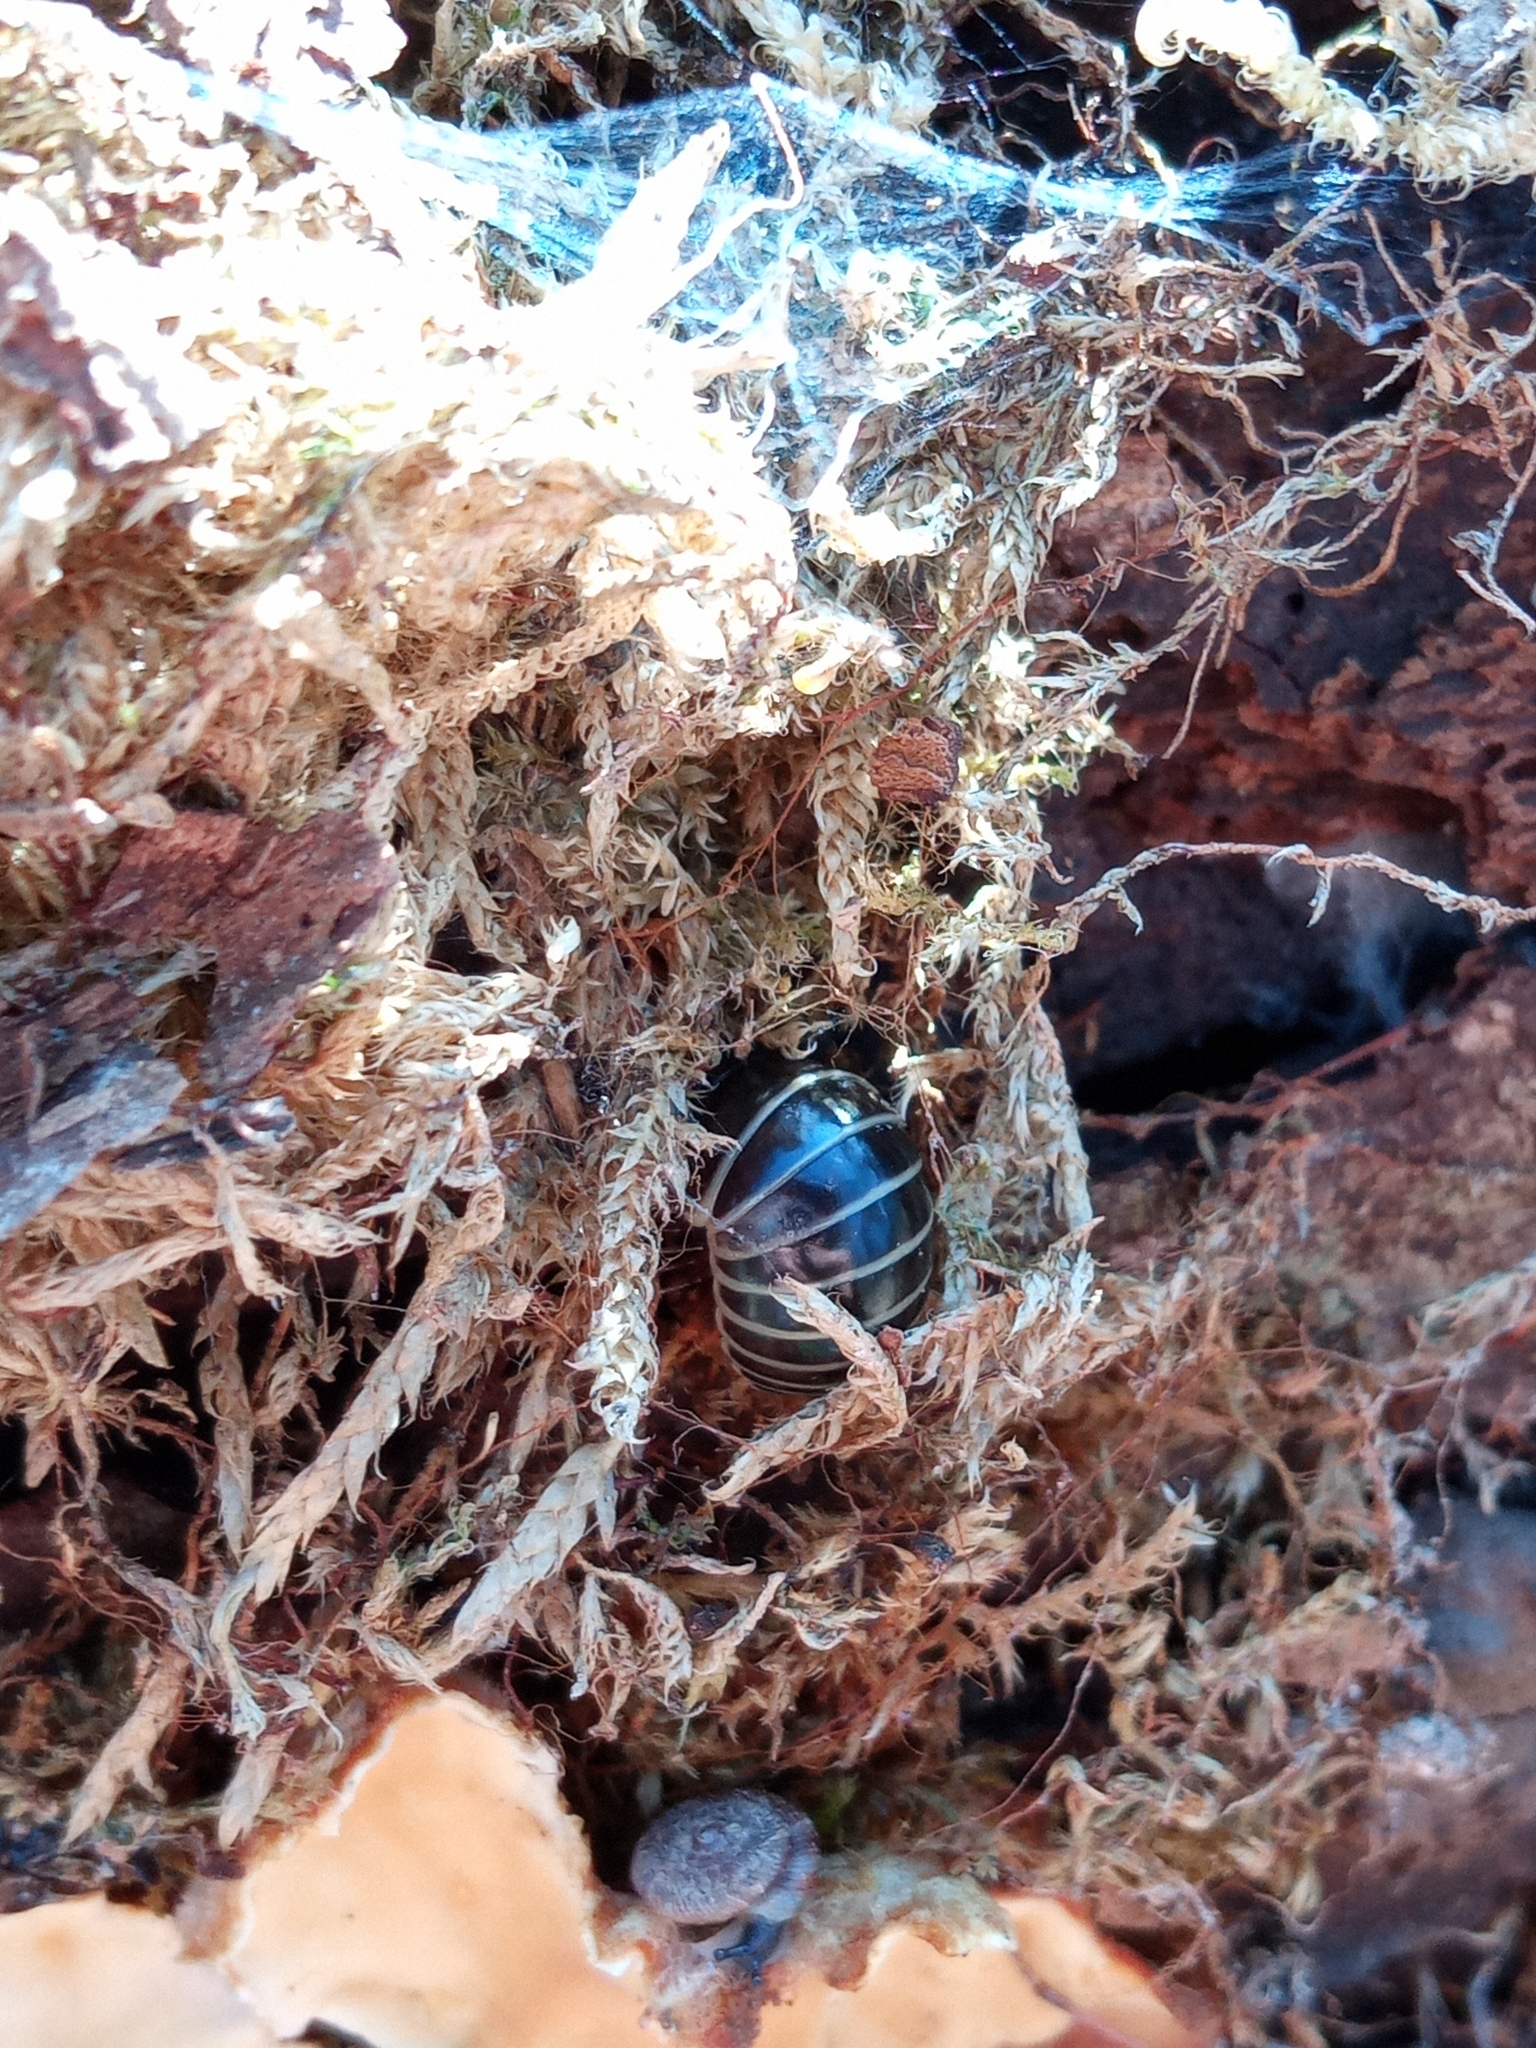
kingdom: Animalia
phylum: Arthropoda
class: Diplopoda
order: Glomerida
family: Glomeridae
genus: Glomeris
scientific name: Glomeris marginata
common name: Bordered pill millipede
